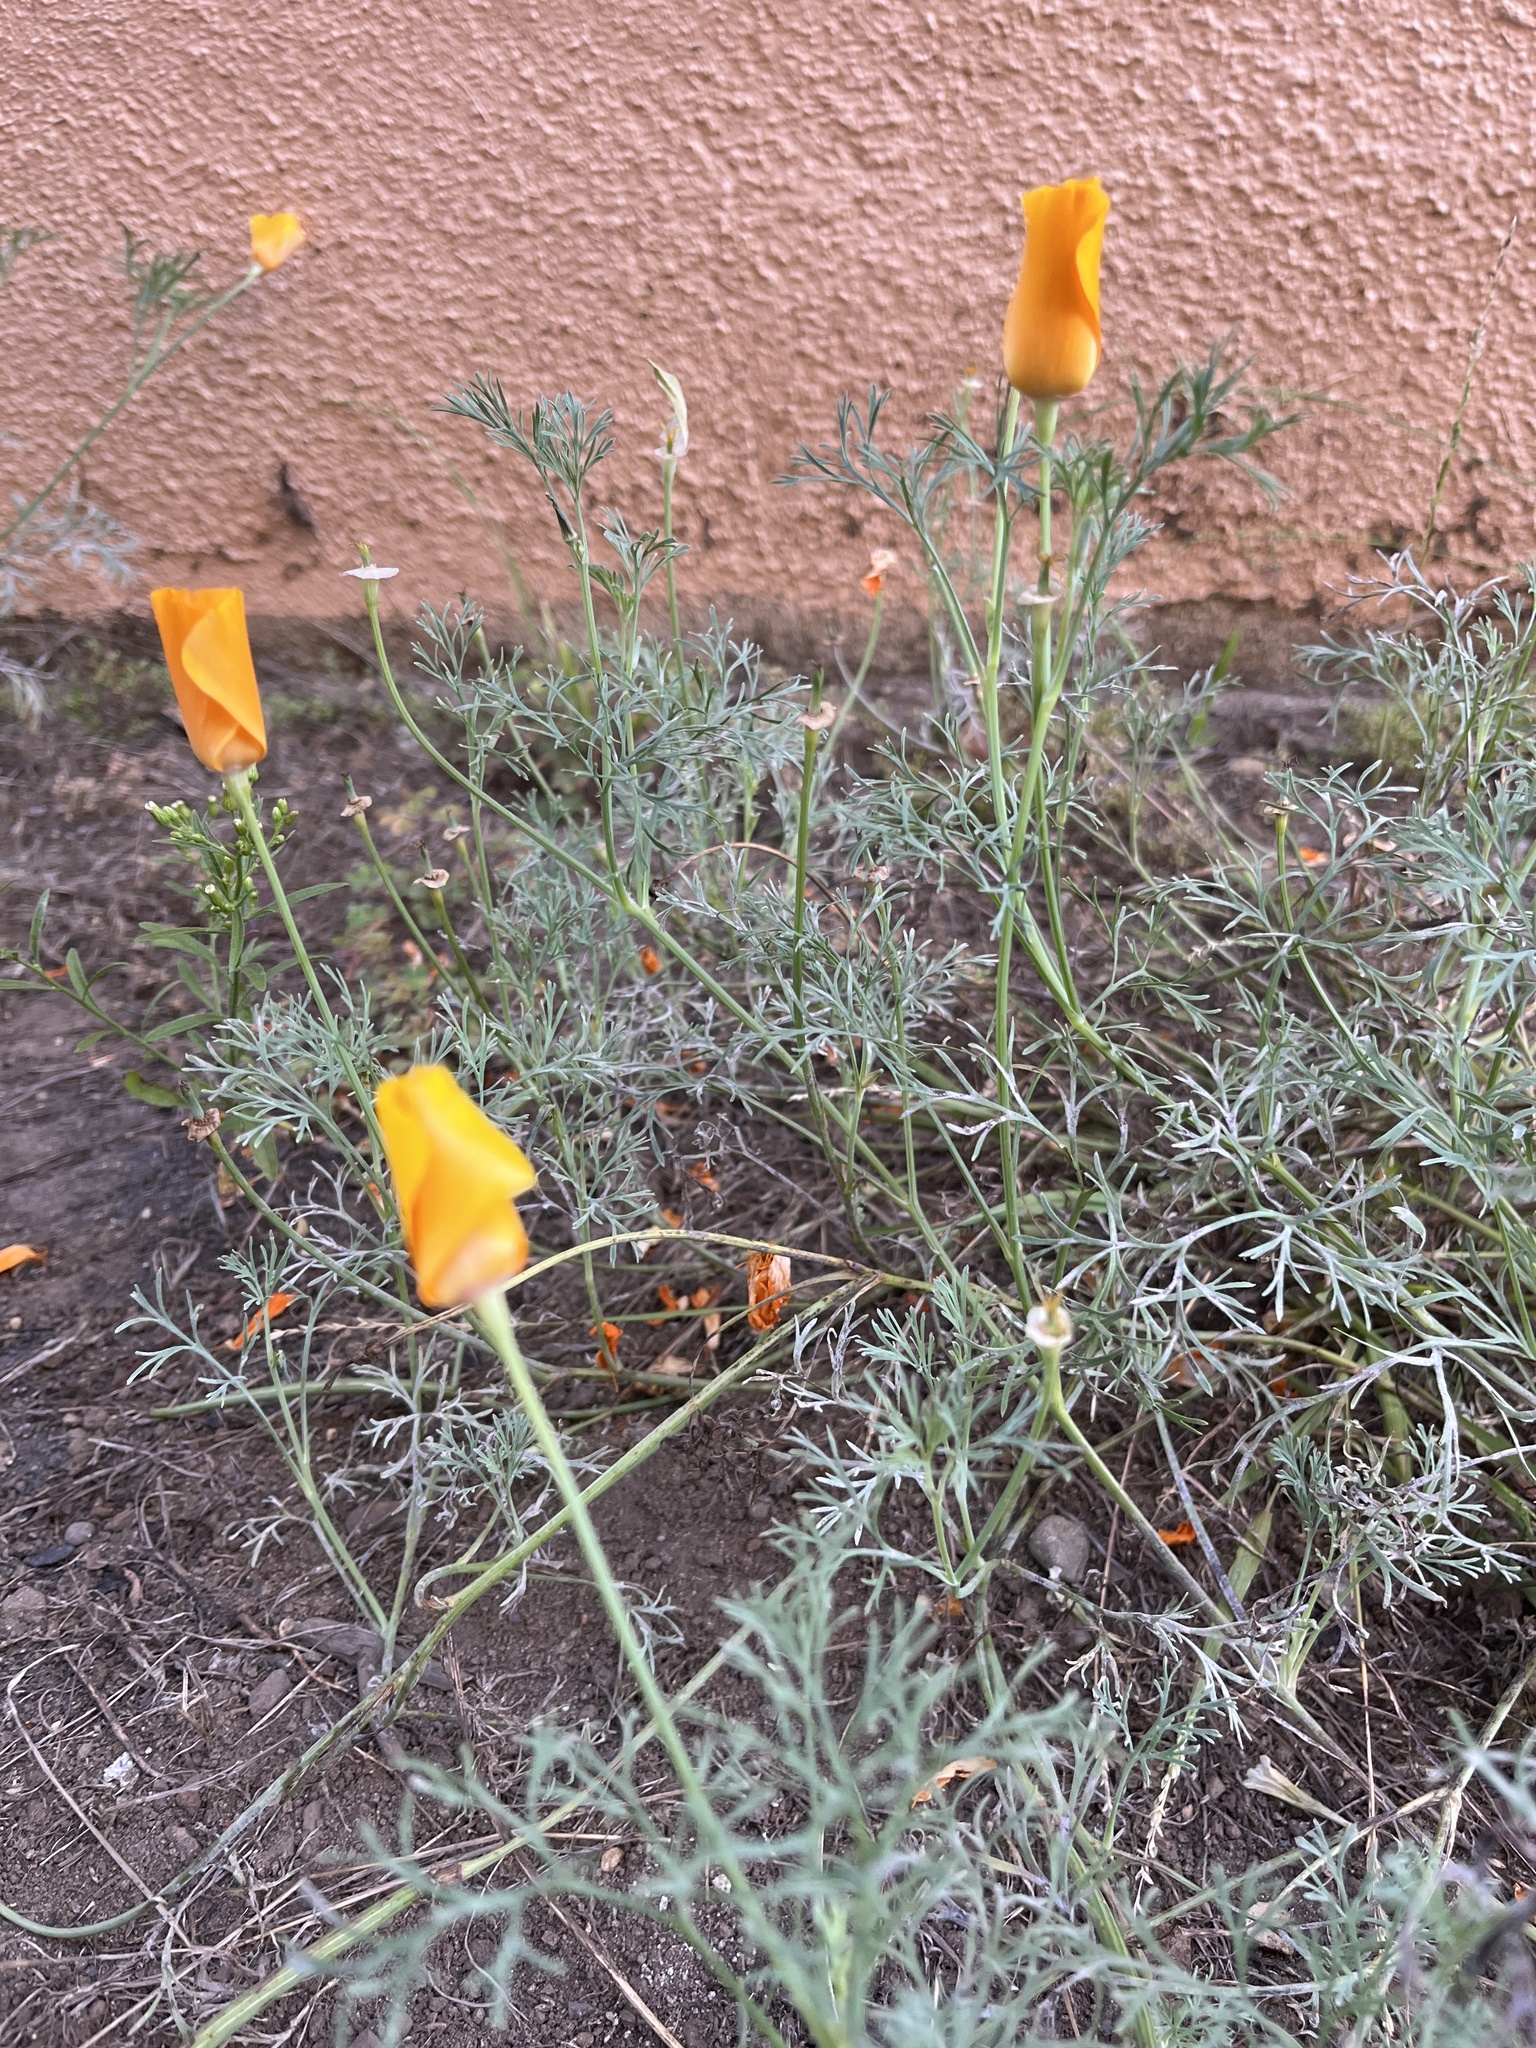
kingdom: Plantae
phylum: Tracheophyta
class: Magnoliopsida
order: Ranunculales
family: Papaveraceae
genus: Eschscholzia
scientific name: Eschscholzia californica
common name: California poppy
